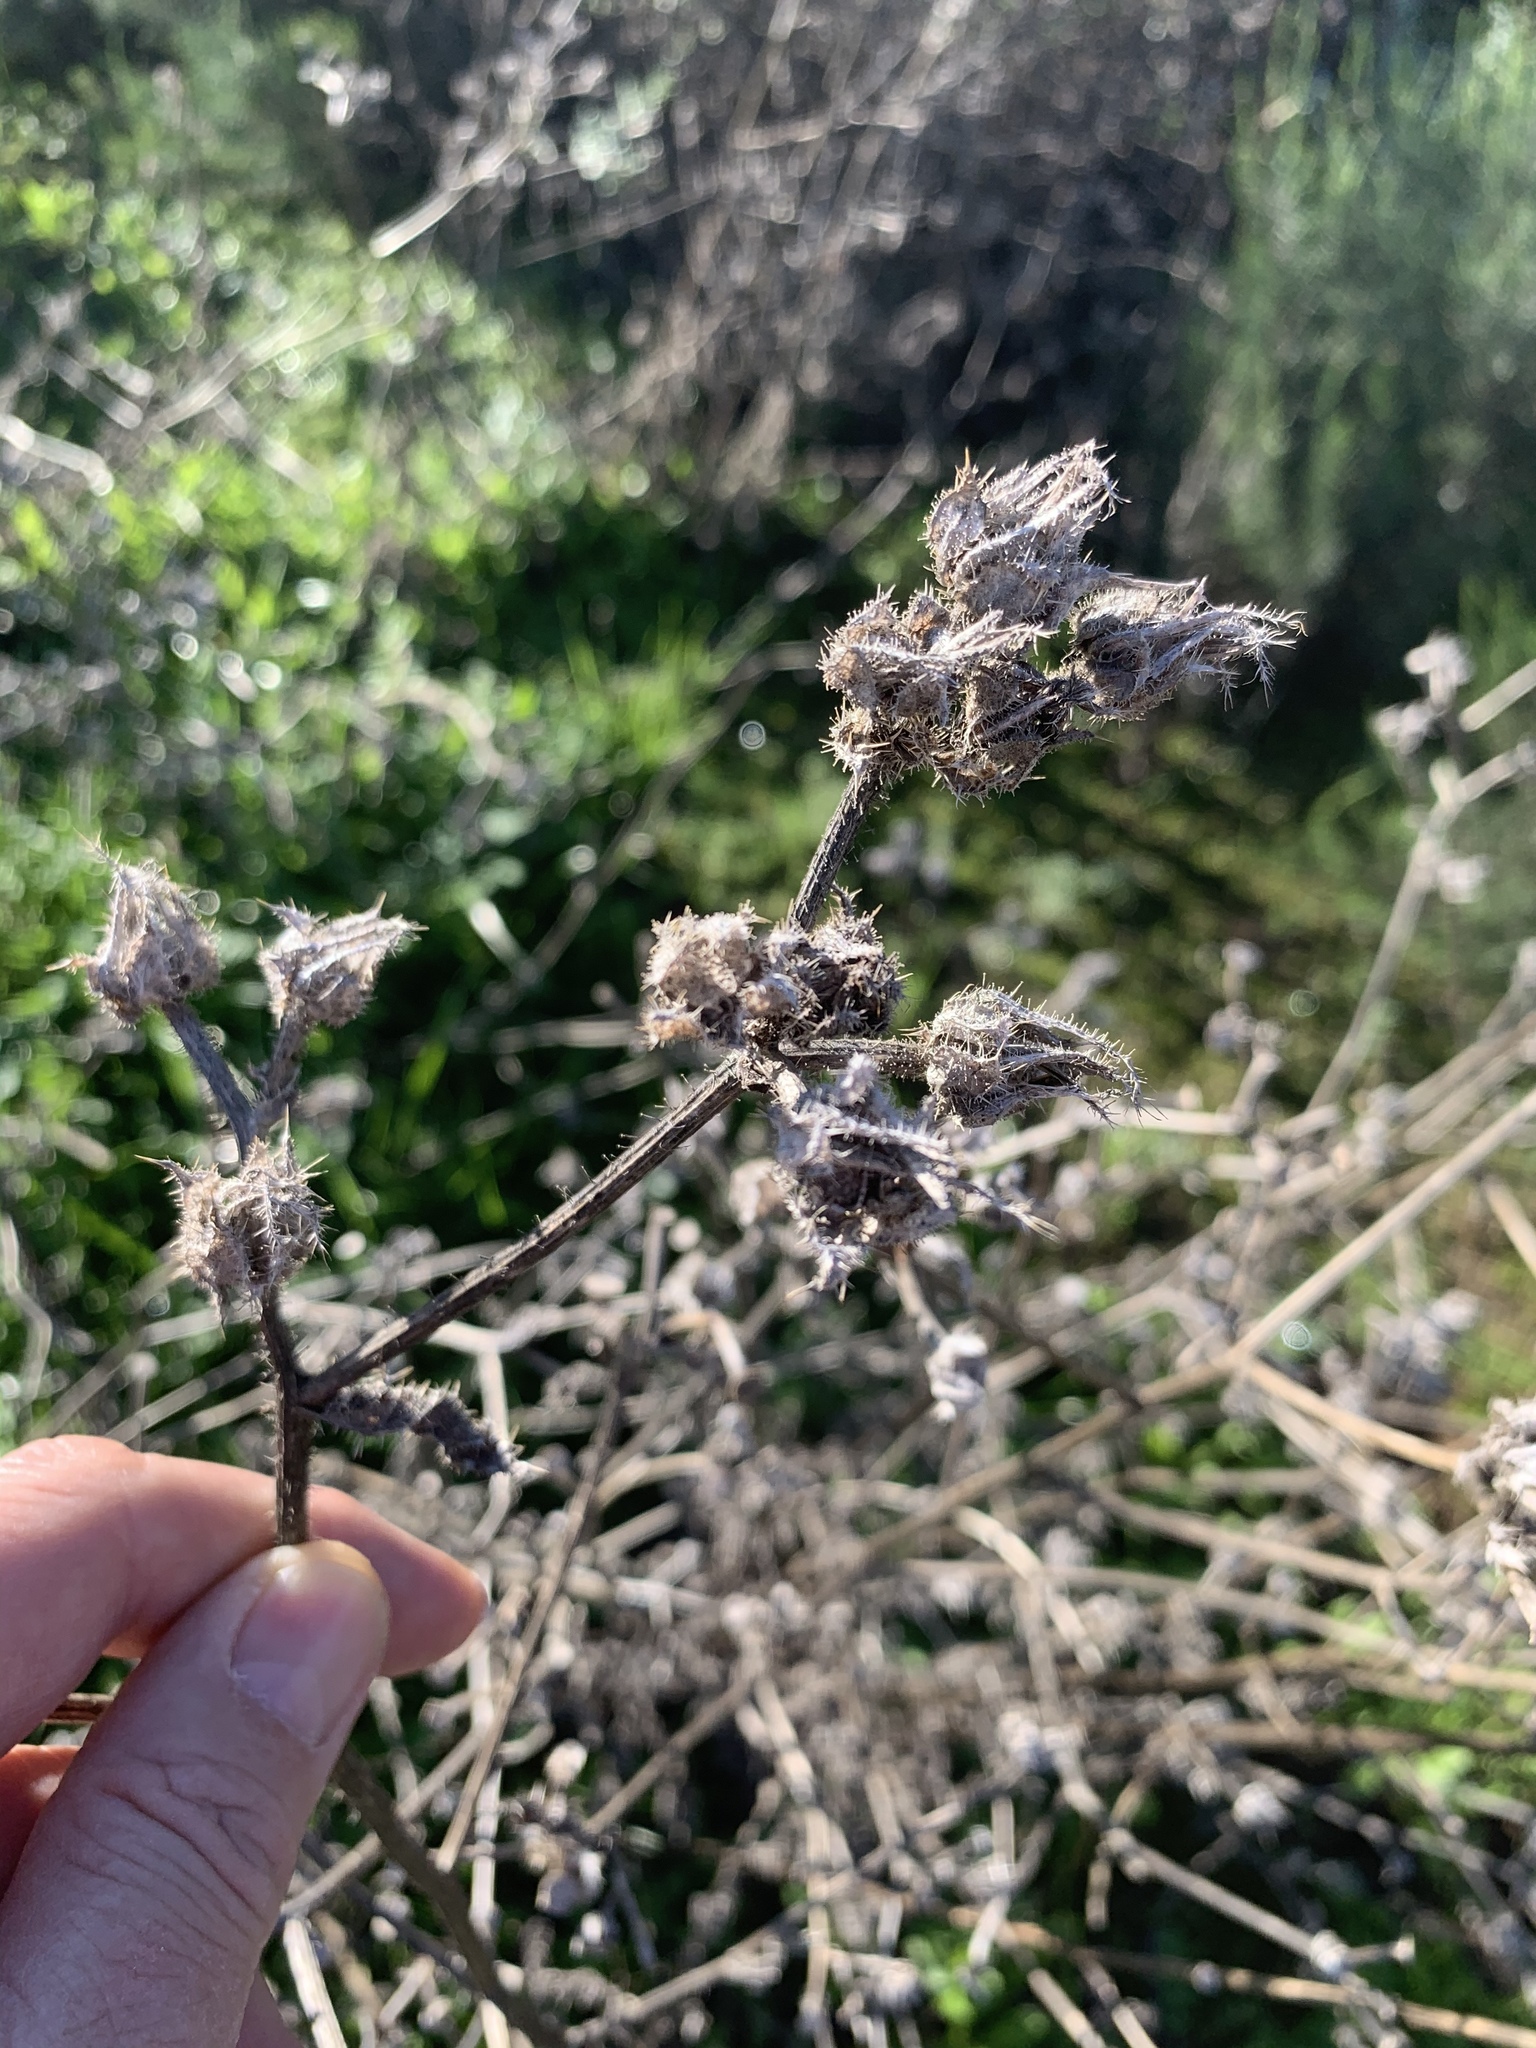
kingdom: Plantae
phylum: Tracheophyta
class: Magnoliopsida
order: Asterales
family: Asteraceae
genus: Helminthotheca
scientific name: Helminthotheca echioides
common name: Ox-tongue
